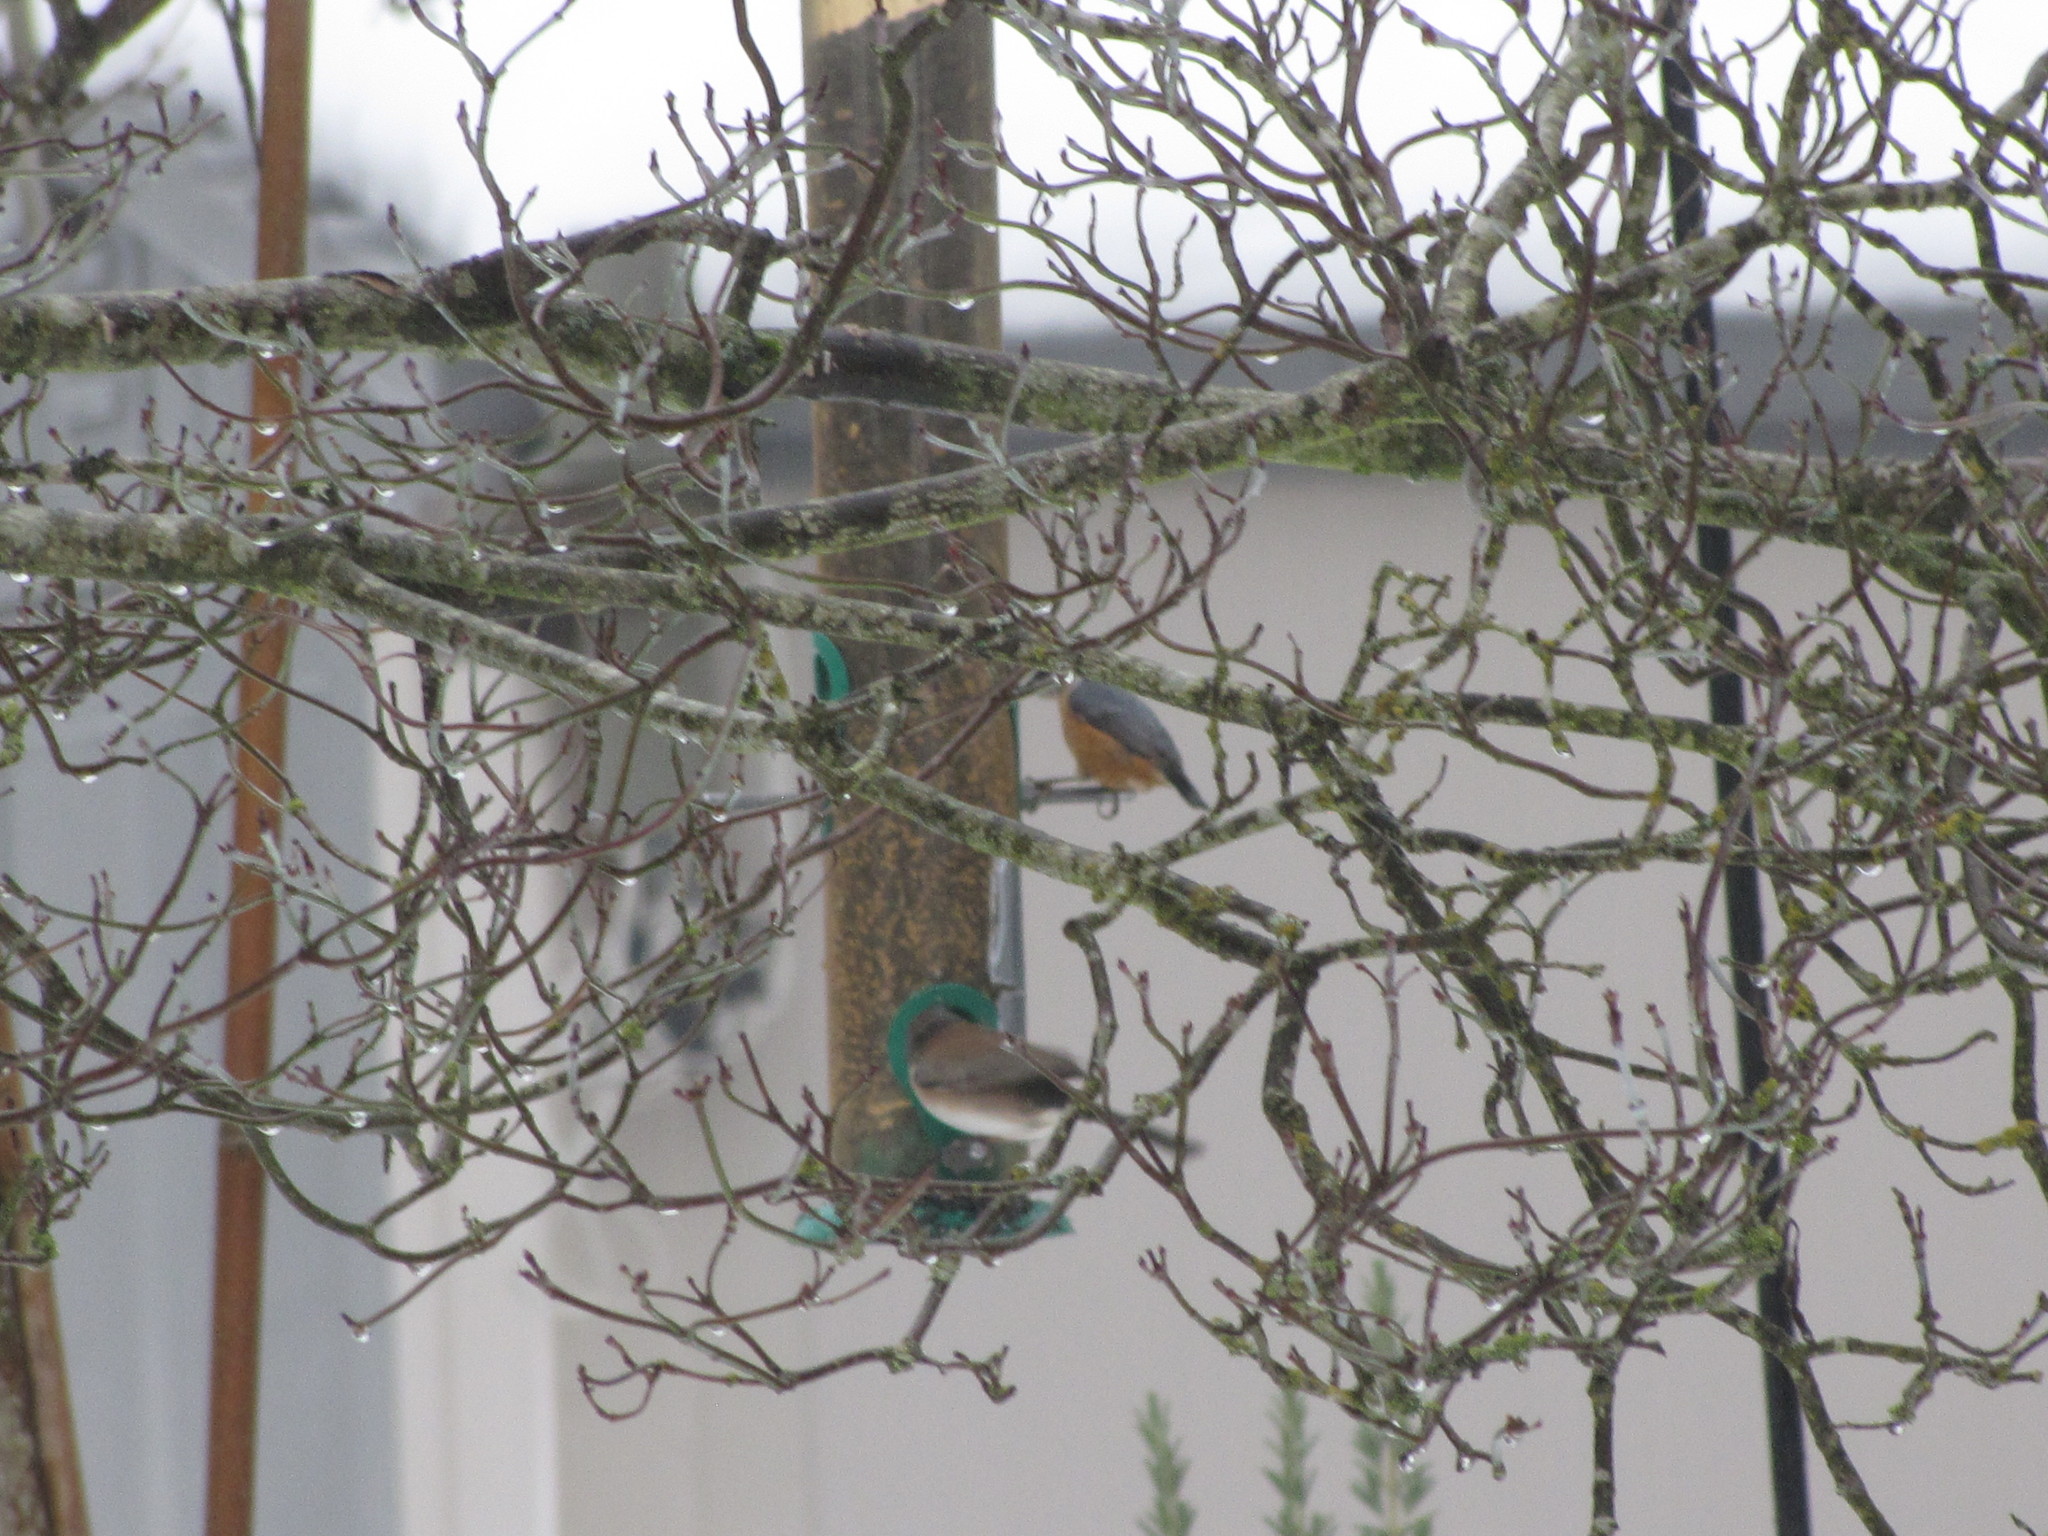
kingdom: Animalia
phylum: Chordata
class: Aves
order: Passeriformes
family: Passerellidae
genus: Junco
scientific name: Junco hyemalis
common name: Dark-eyed junco
